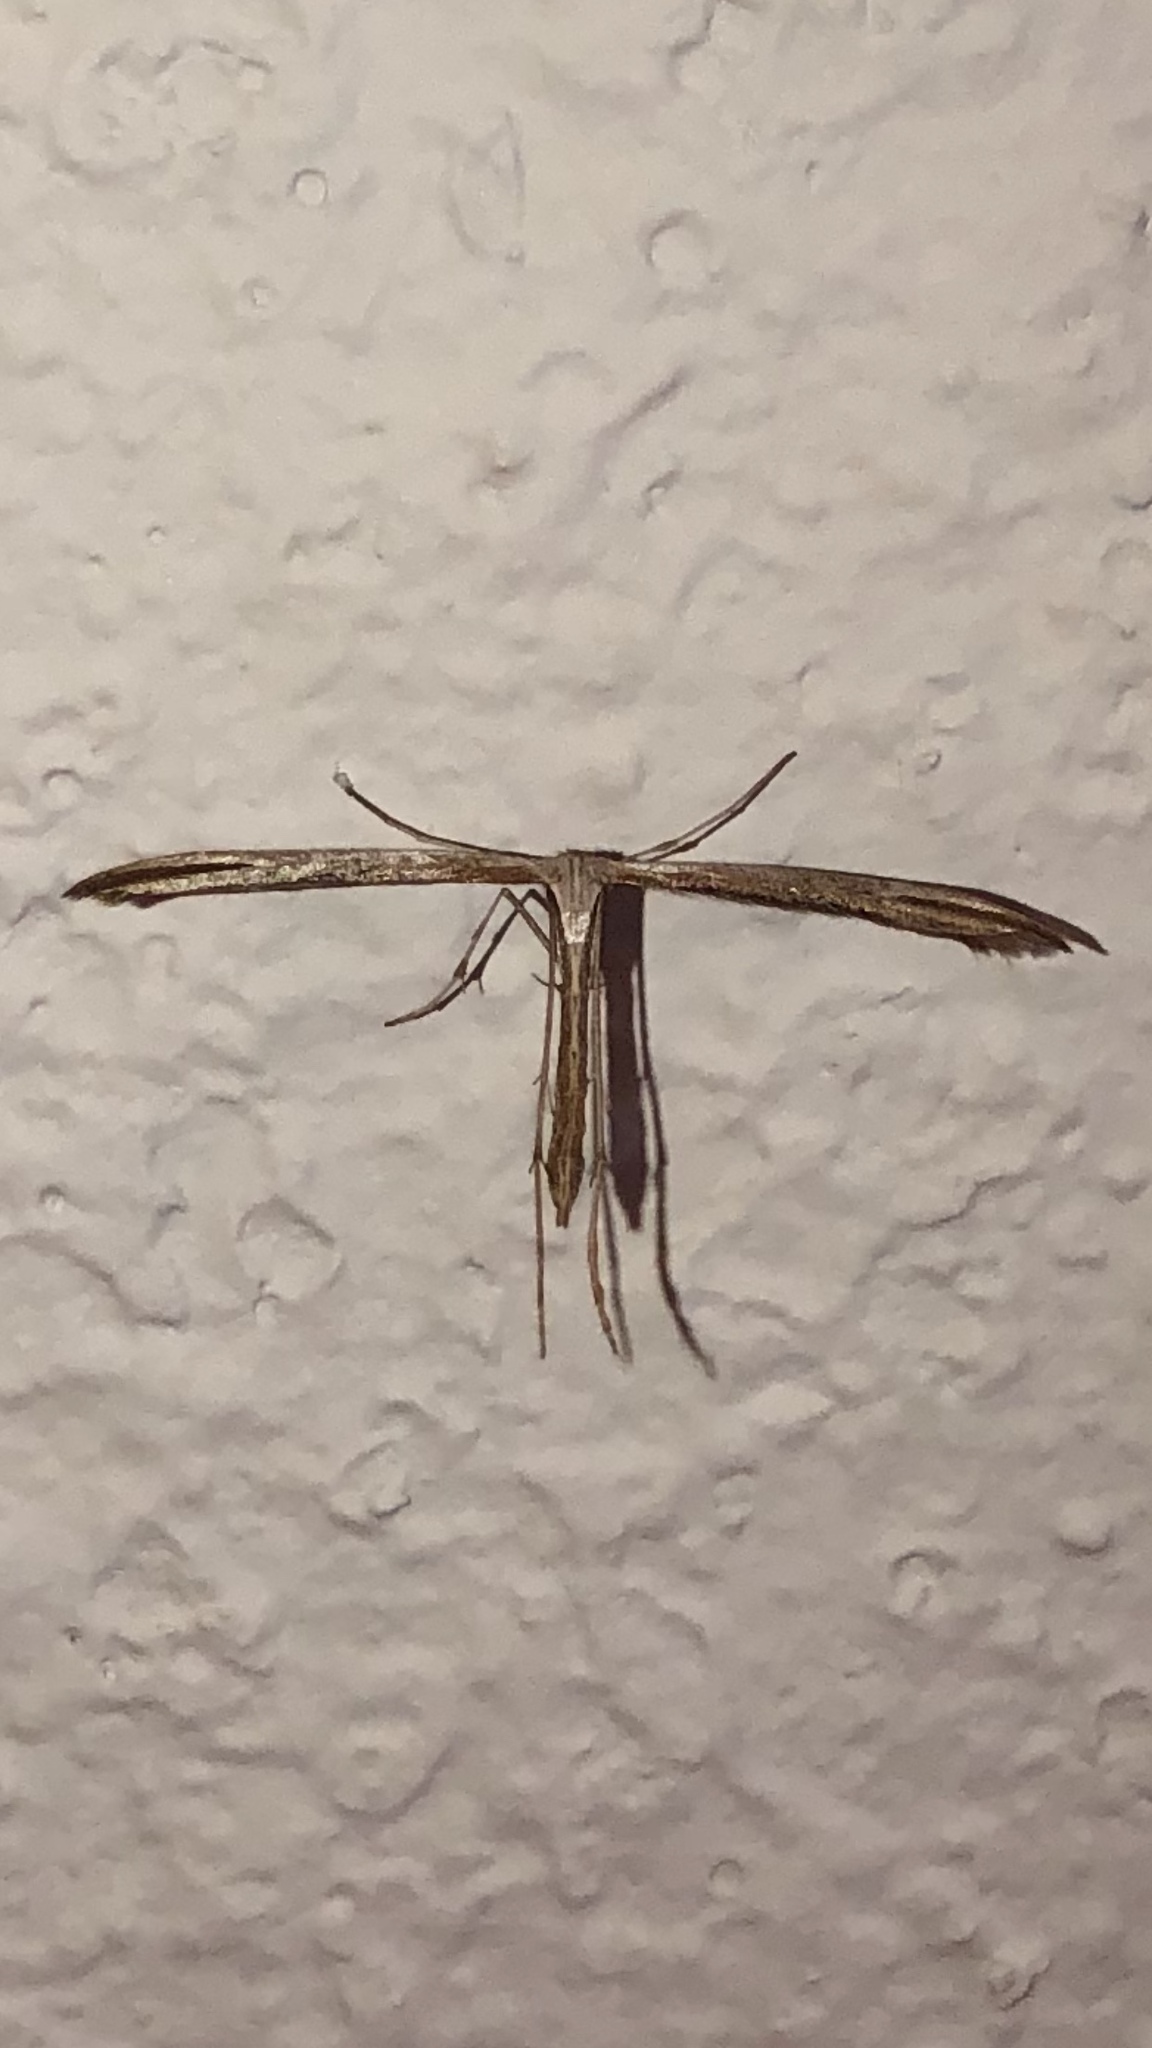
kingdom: Animalia
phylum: Arthropoda
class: Insecta
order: Lepidoptera
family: Pterophoridae
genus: Emmelina
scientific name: Emmelina monodactyla
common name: Common plume
